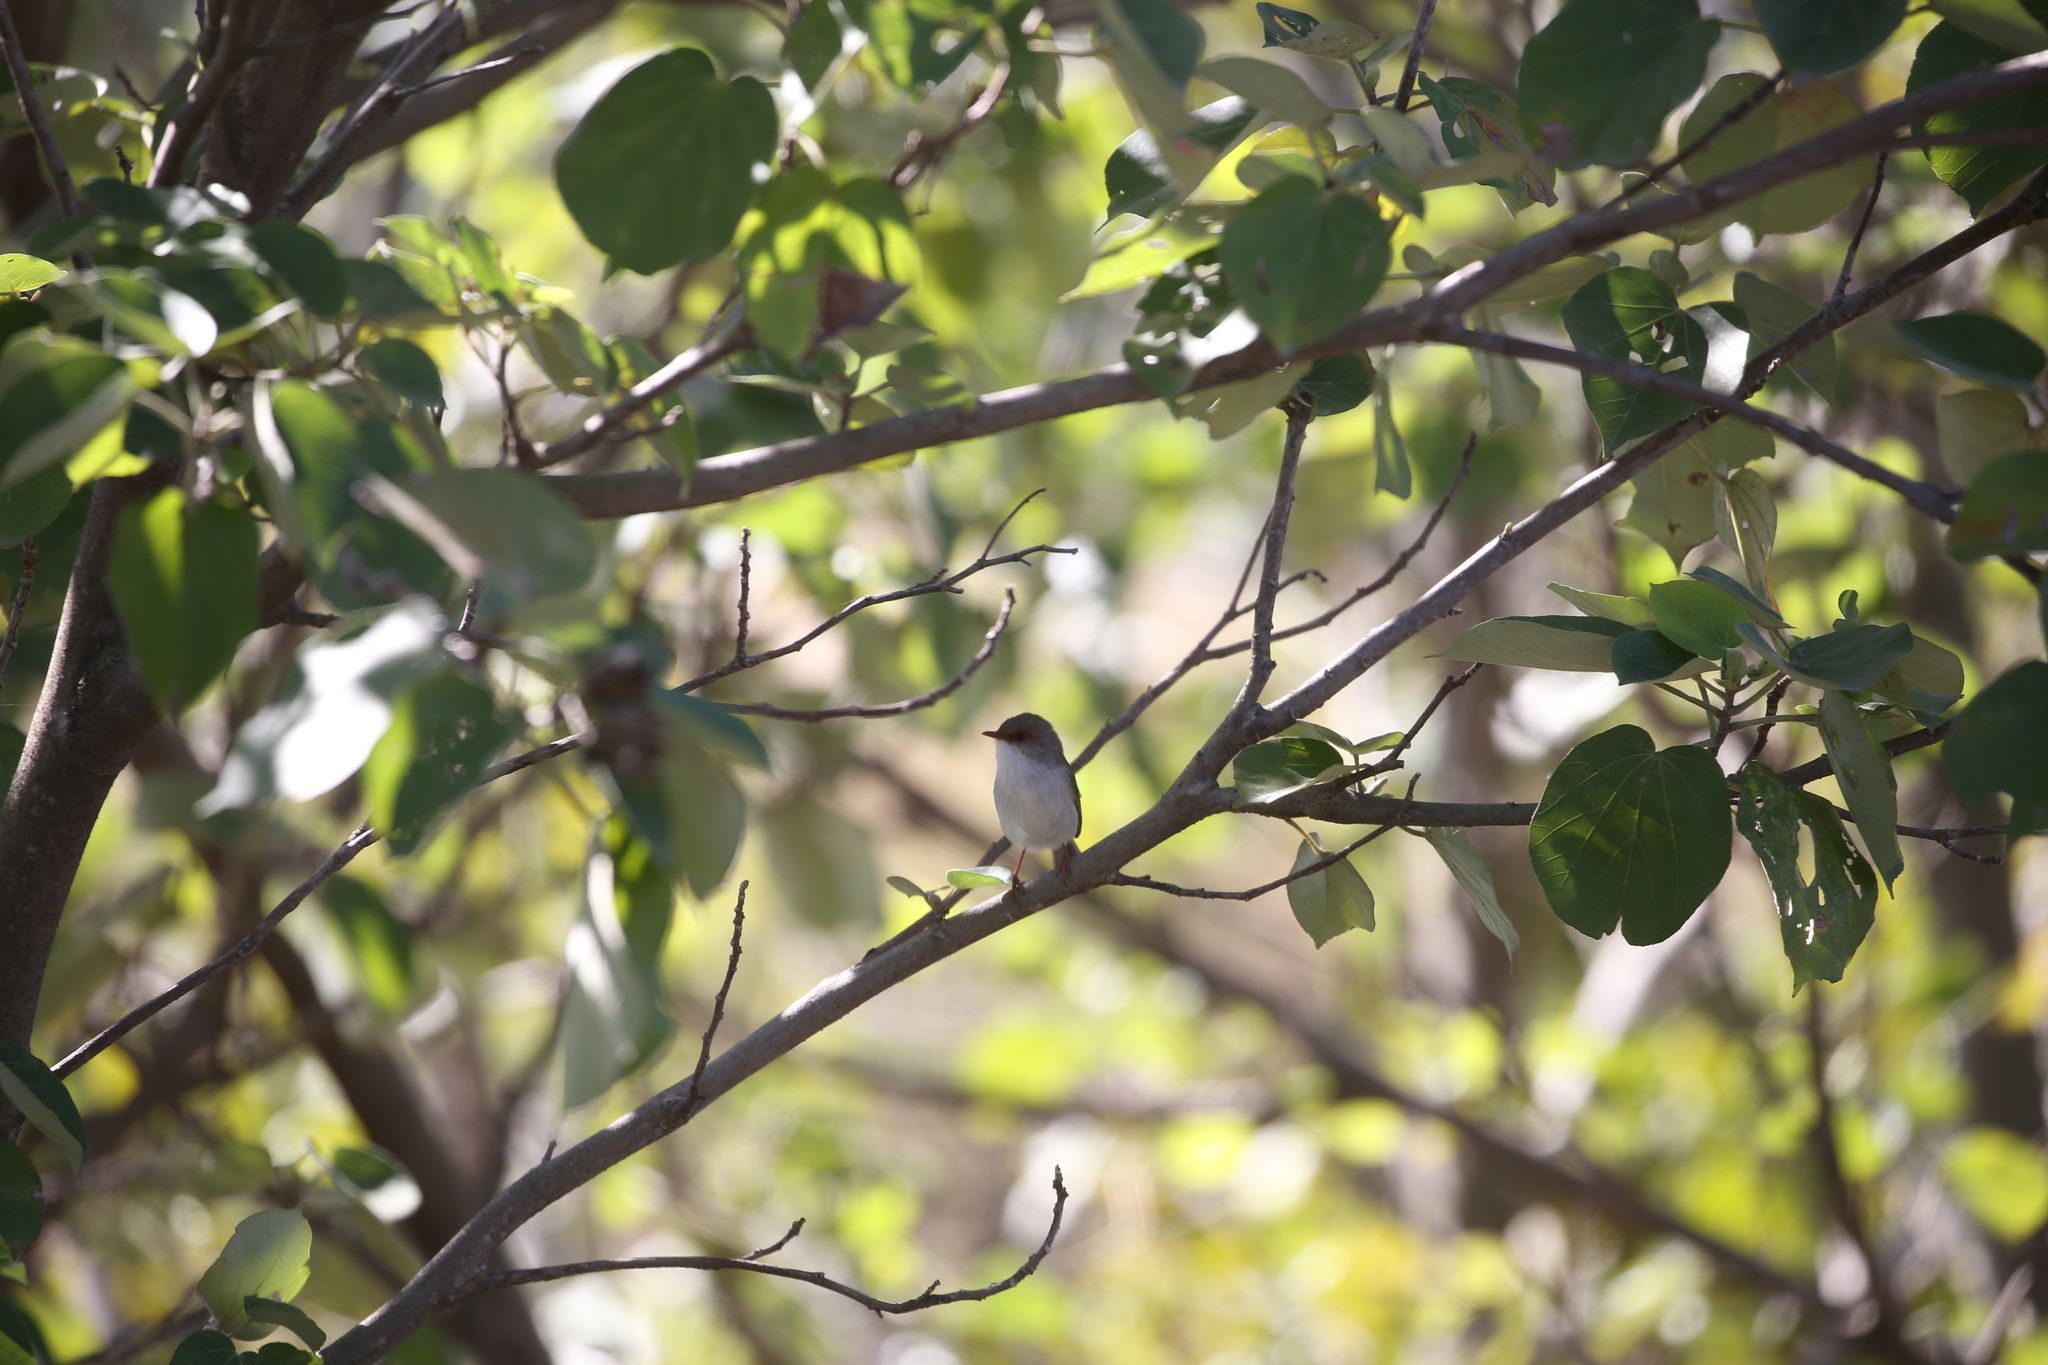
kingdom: Animalia
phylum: Chordata
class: Aves
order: Passeriformes
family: Maluridae
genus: Malurus
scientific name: Malurus cyaneus
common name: Superb fairywren
